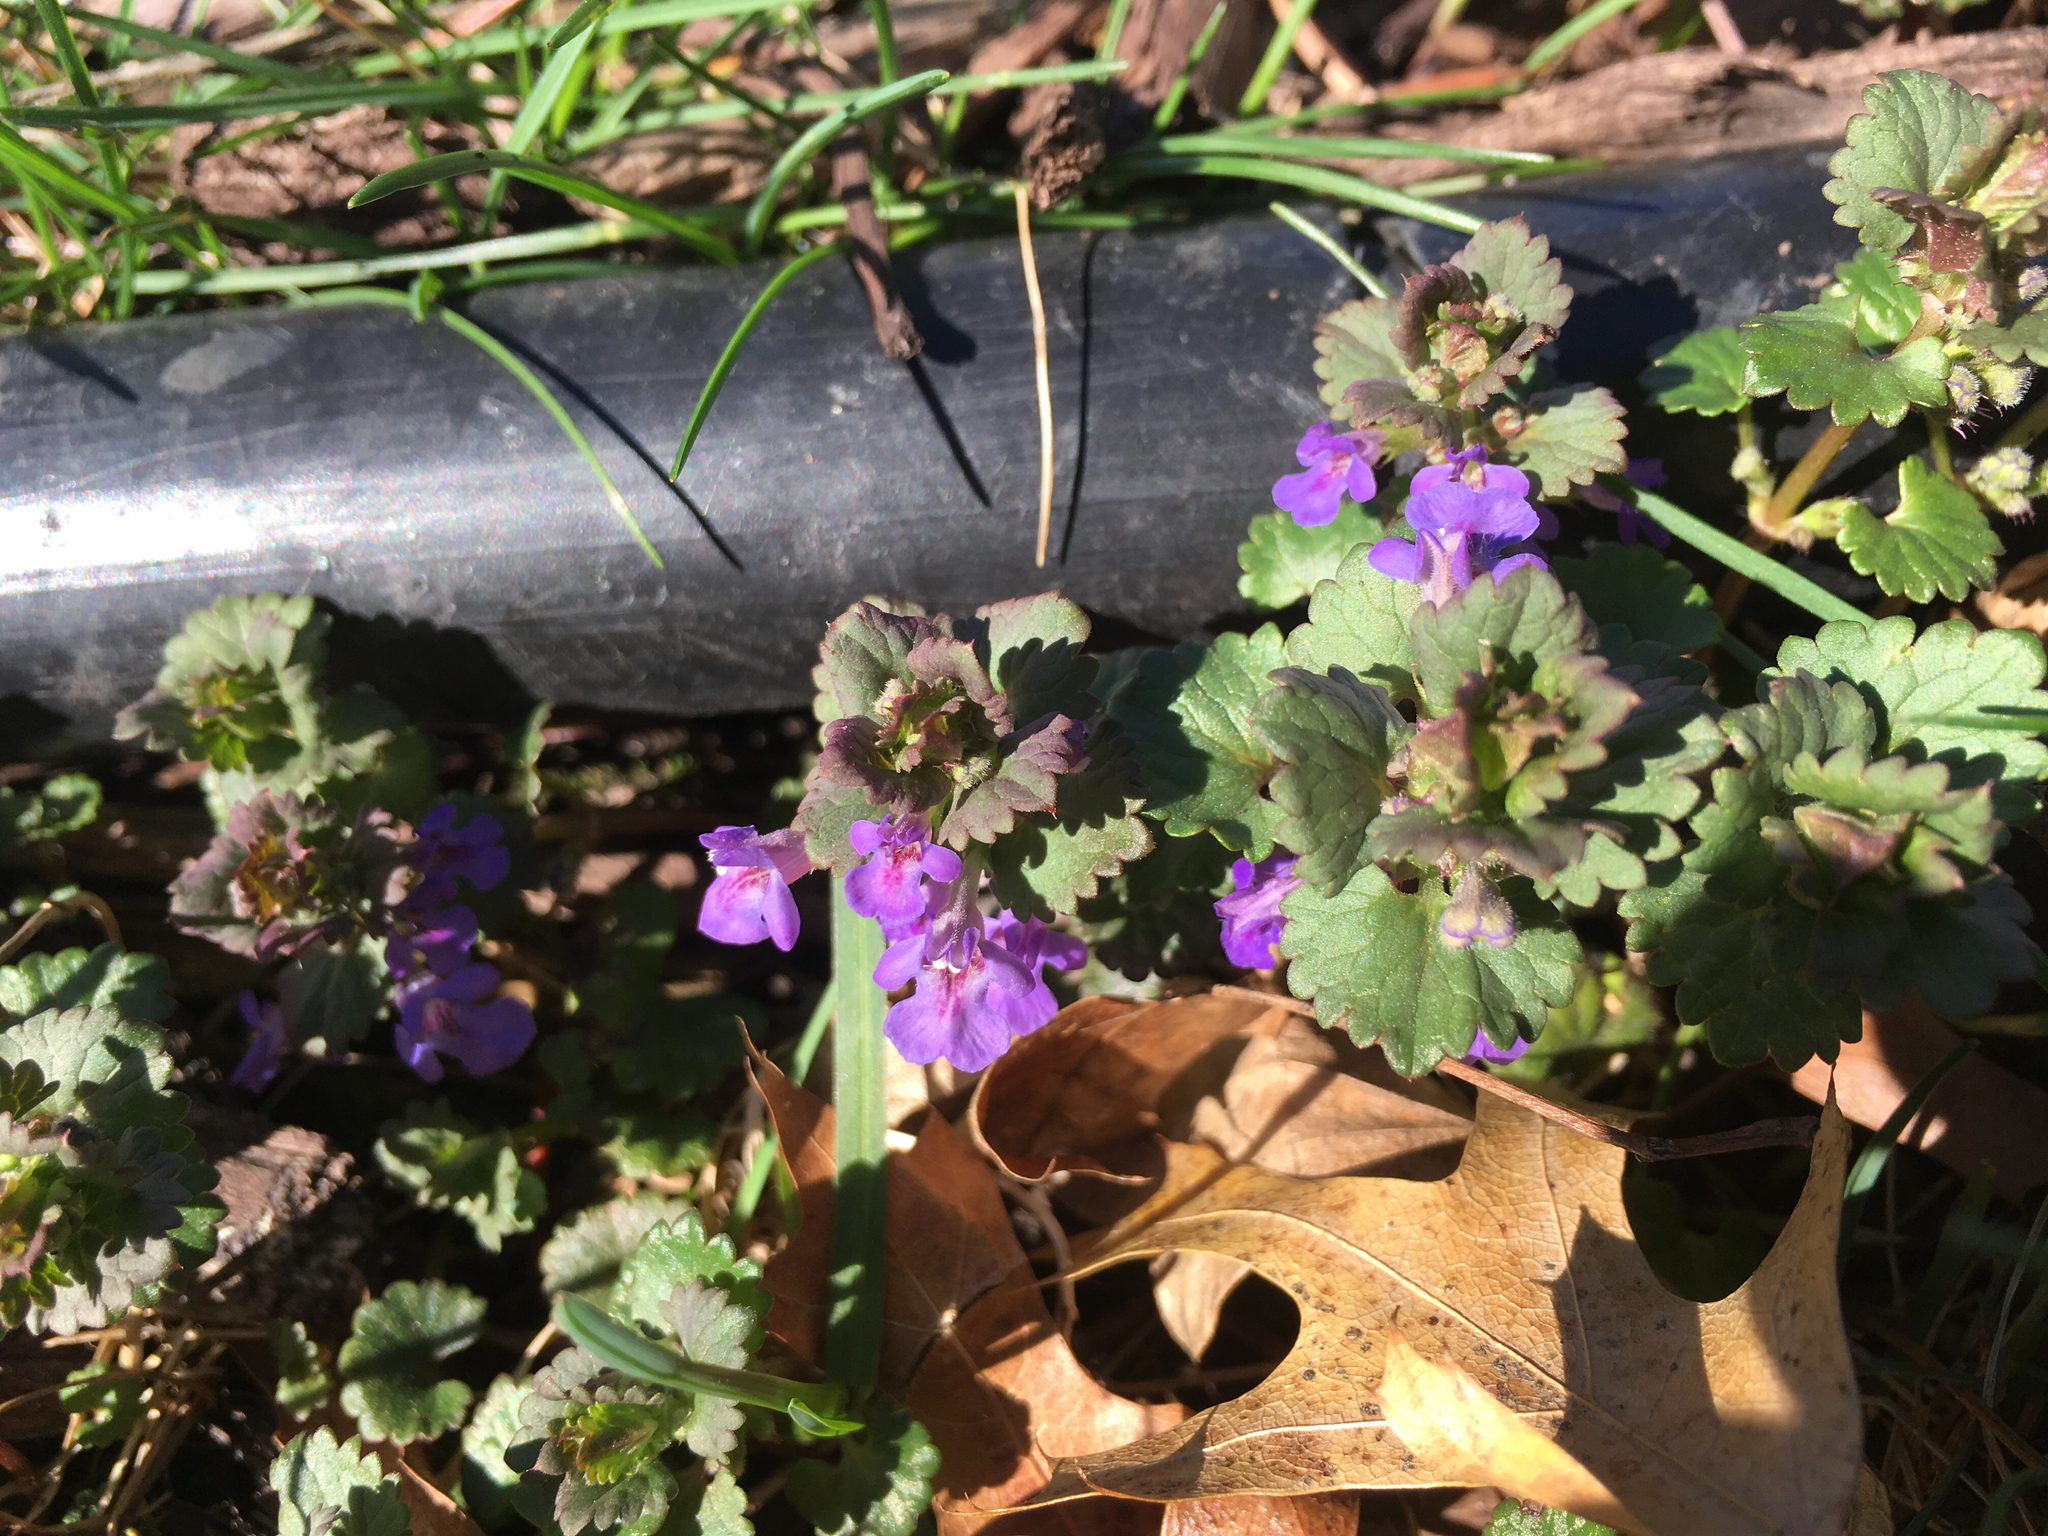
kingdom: Plantae
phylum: Tracheophyta
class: Magnoliopsida
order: Lamiales
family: Lamiaceae
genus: Glechoma
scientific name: Glechoma hederacea
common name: Ground ivy
